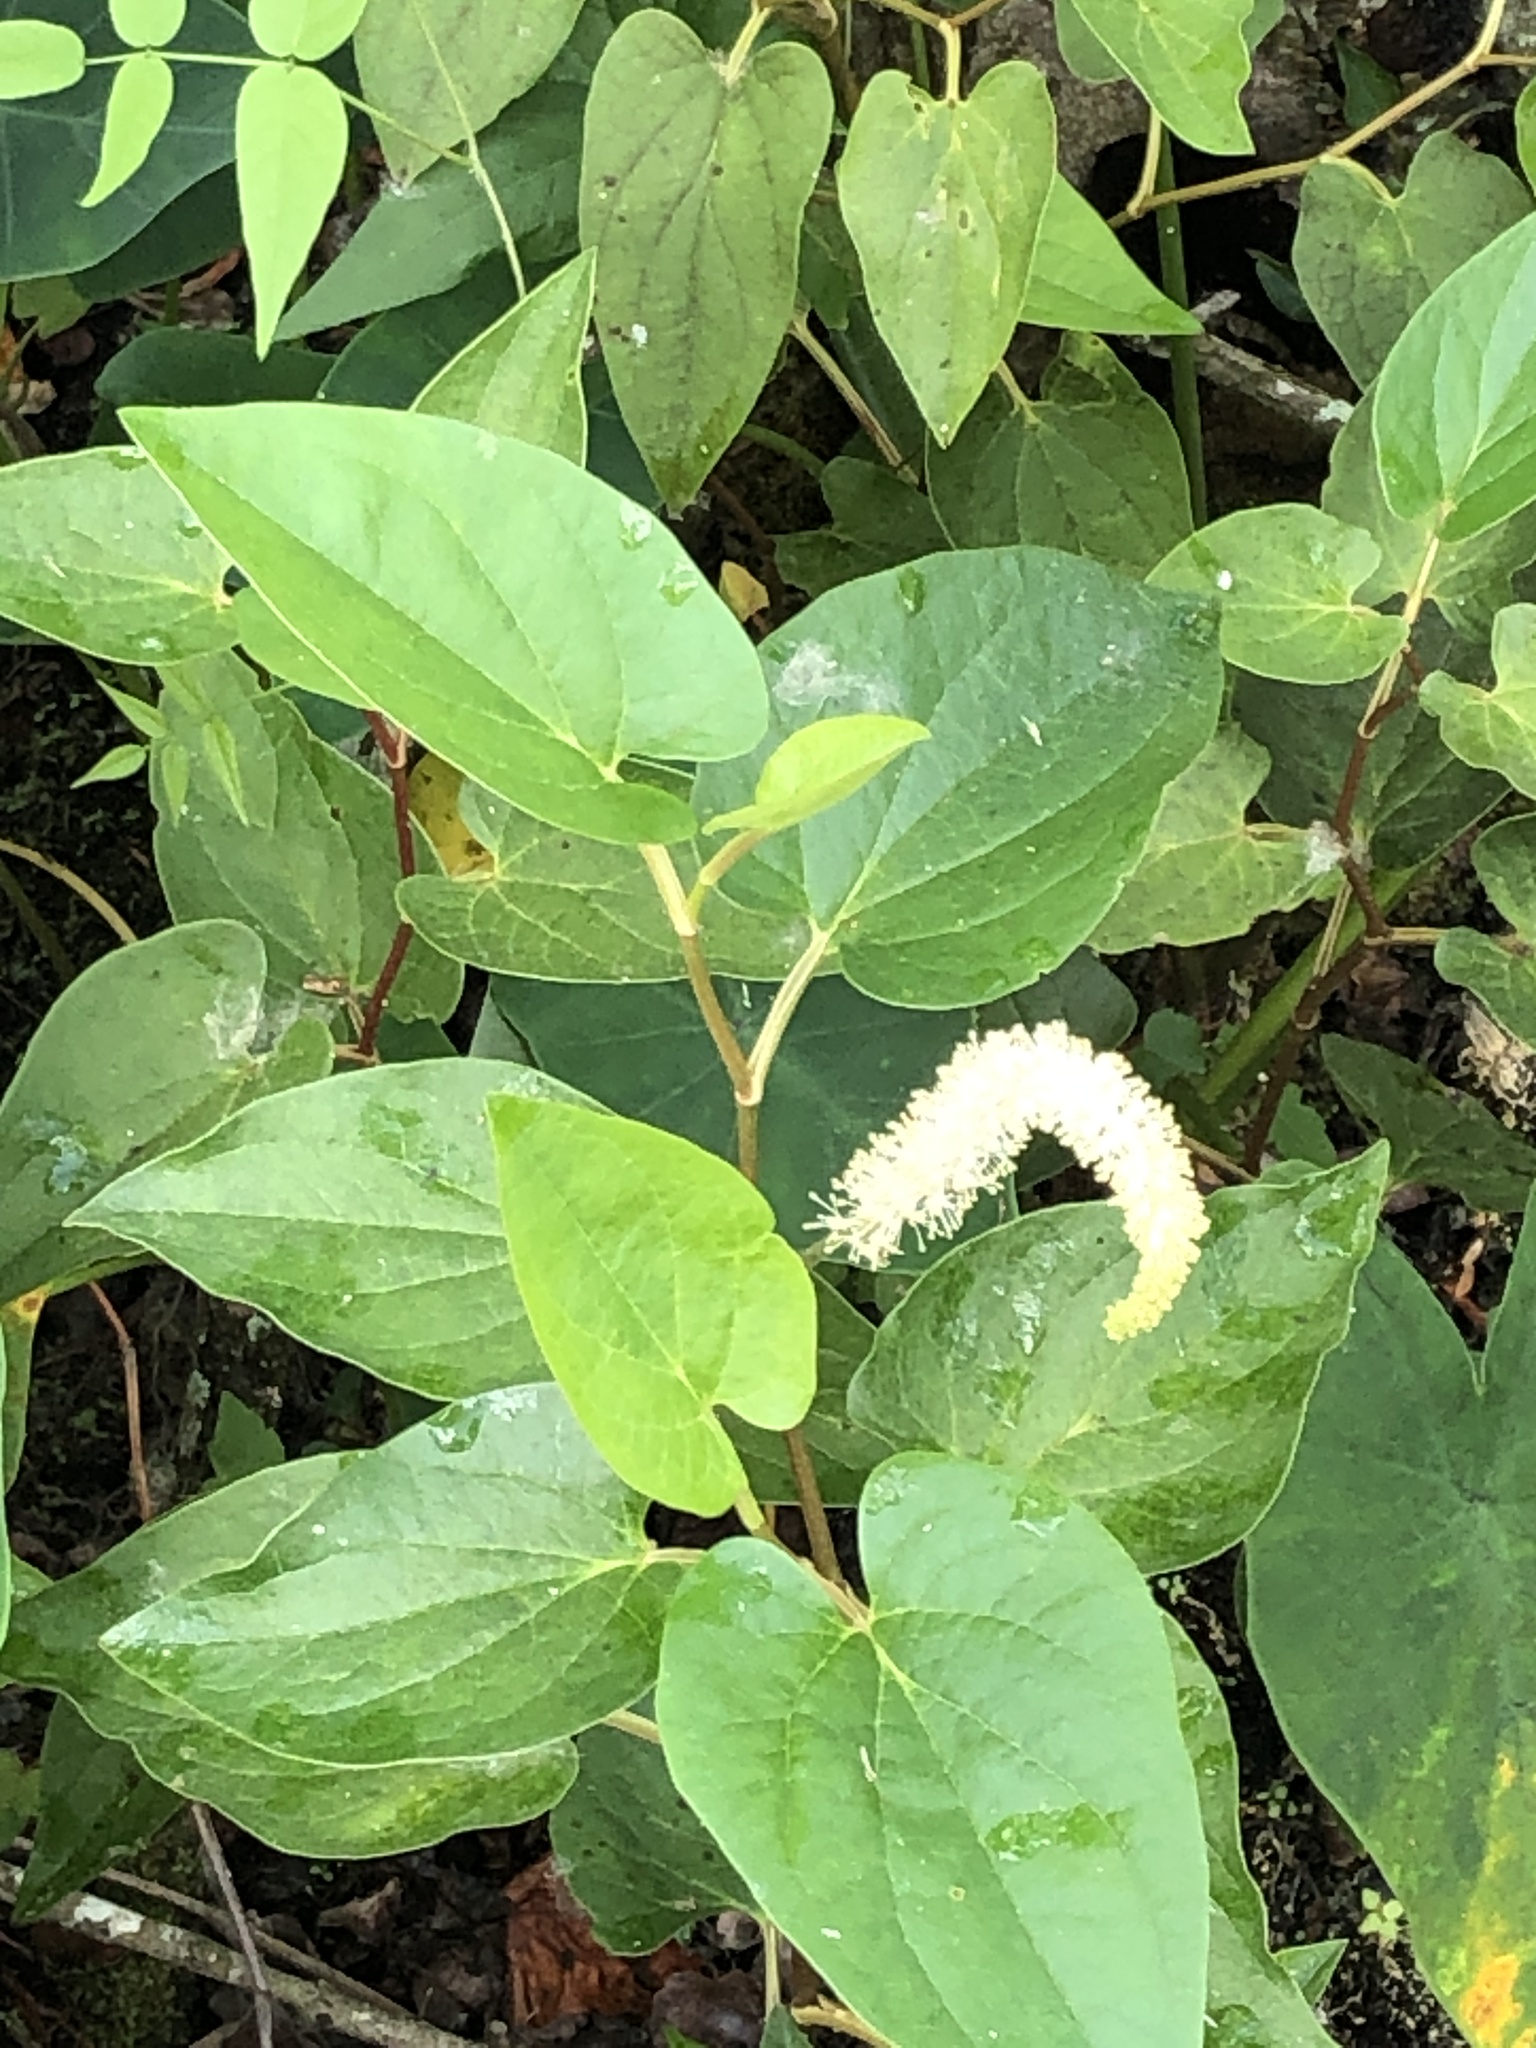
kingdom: Plantae
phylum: Tracheophyta
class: Magnoliopsida
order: Piperales
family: Saururaceae
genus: Saururus
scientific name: Saururus cernuus
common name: Lizard's-tail
